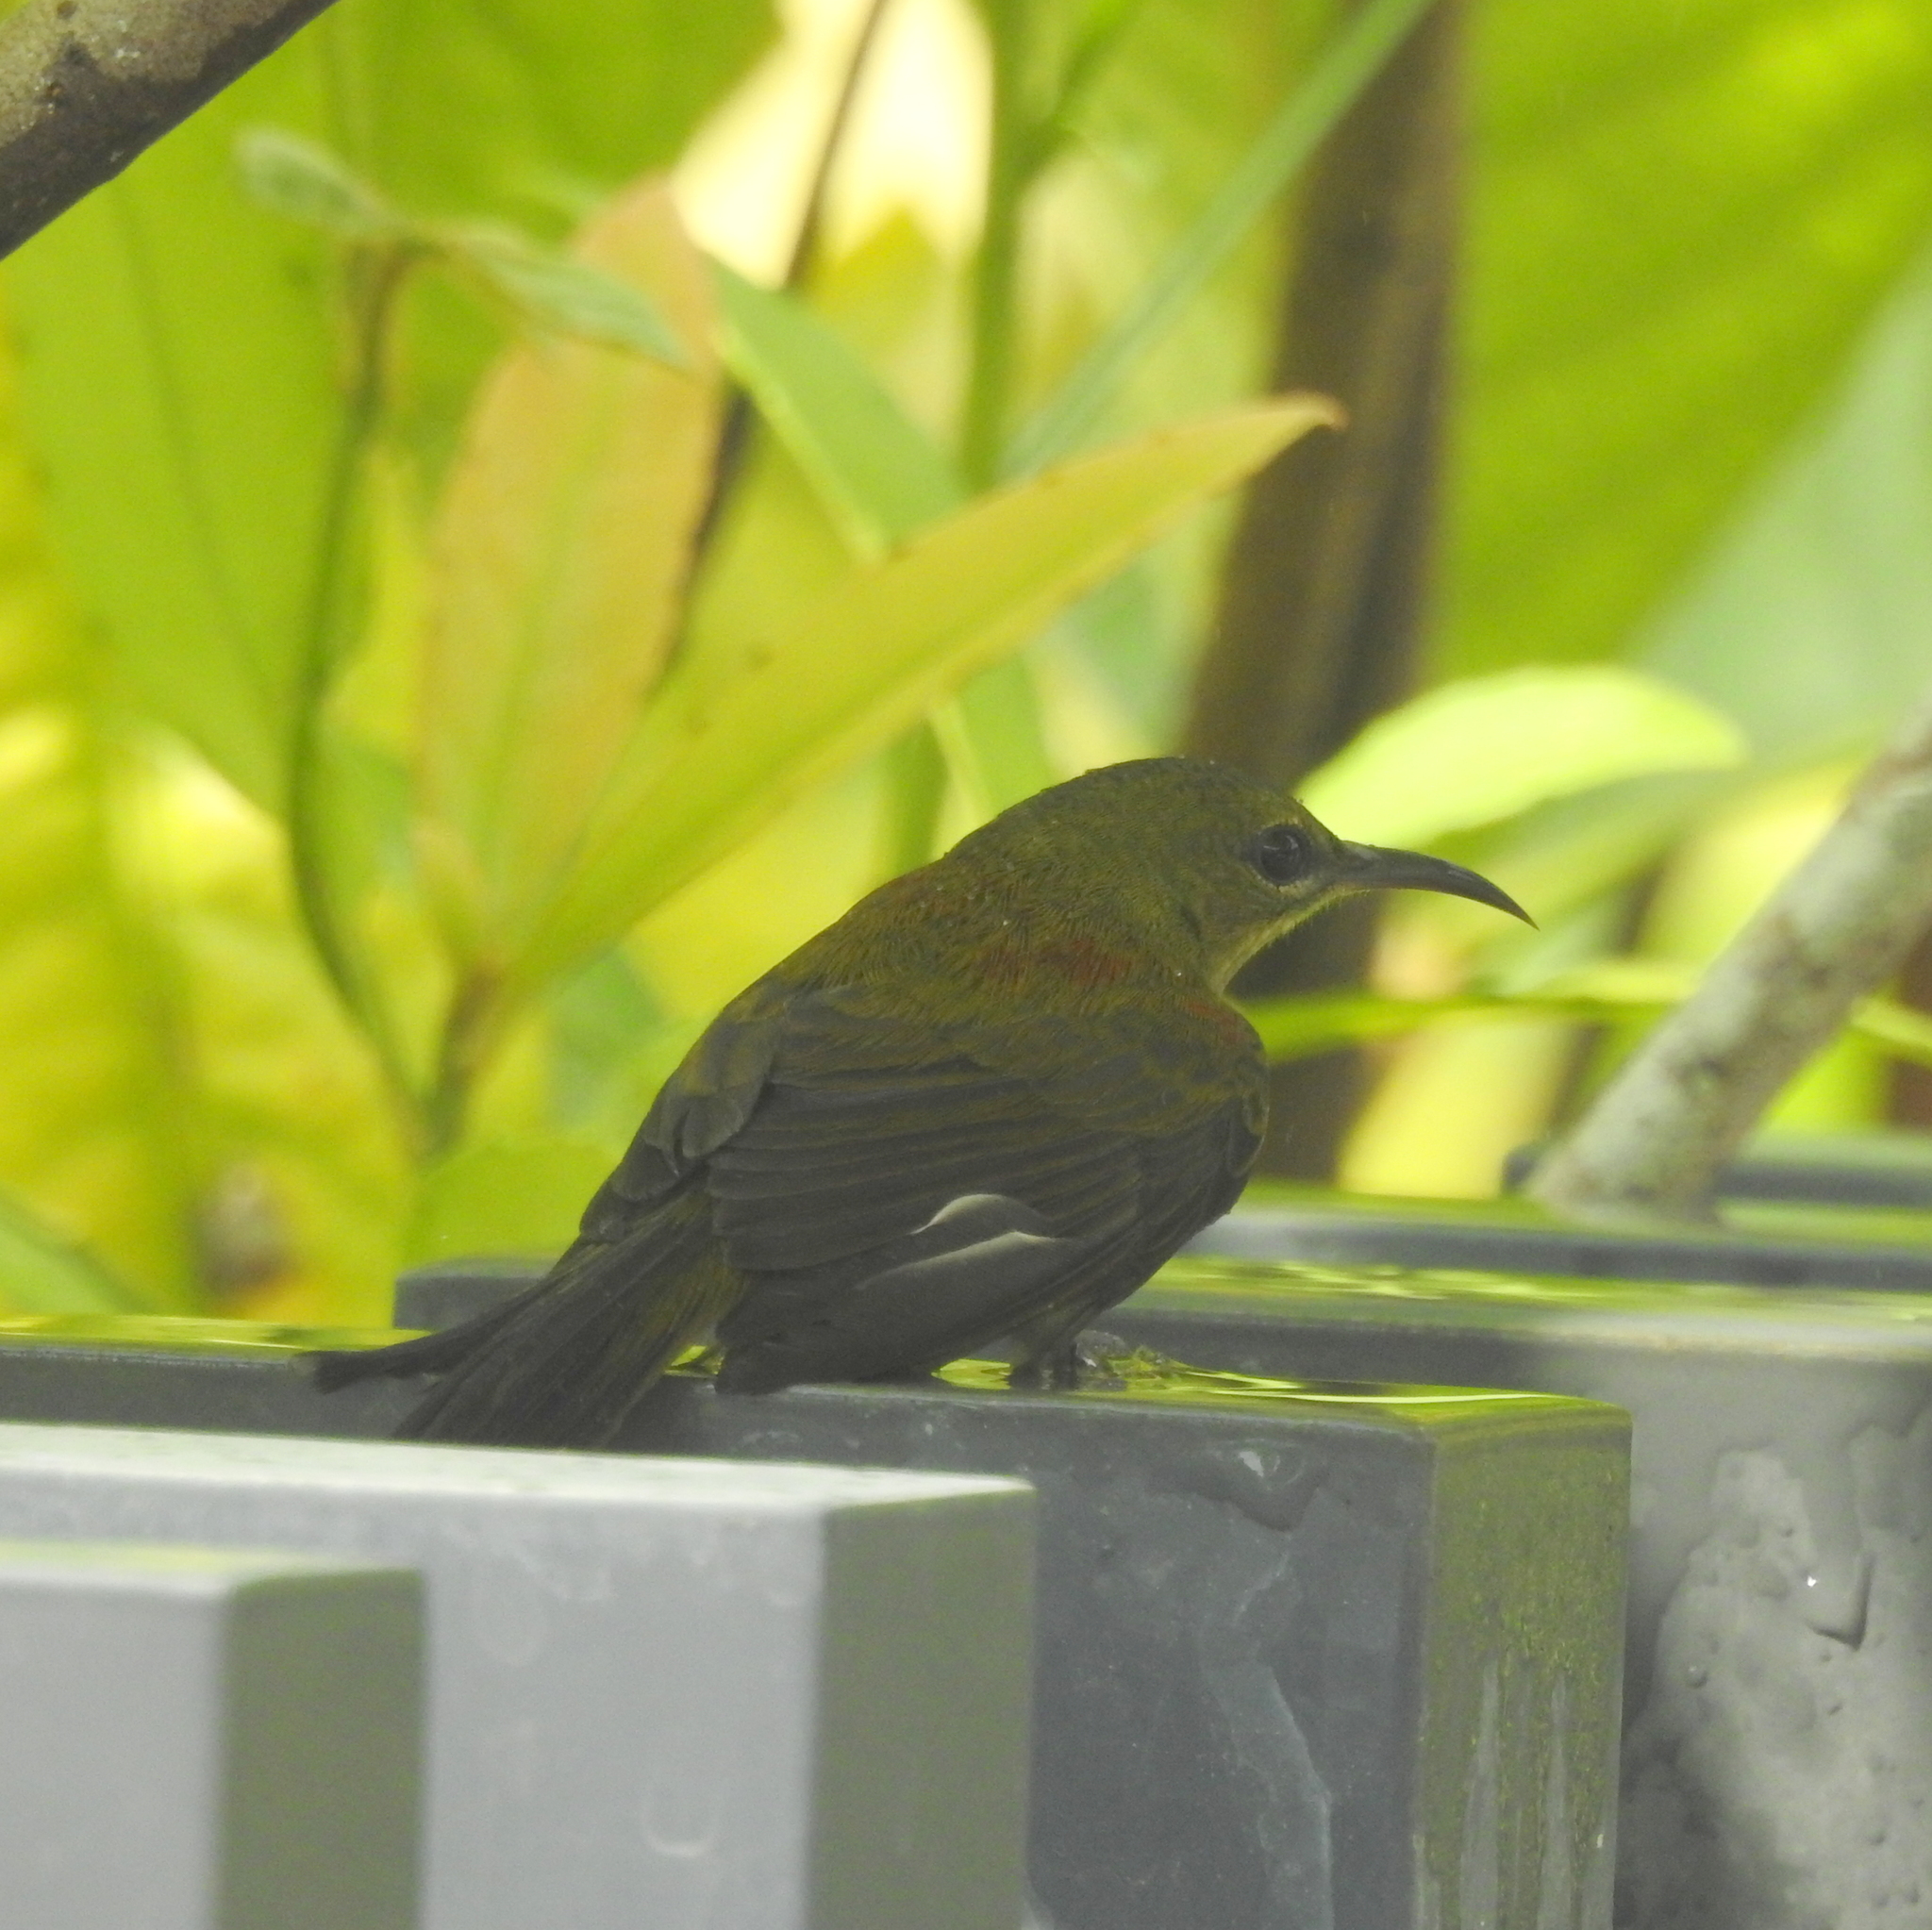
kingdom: Animalia
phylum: Chordata
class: Aves
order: Passeriformes
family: Nectariniidae
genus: Aethopyga
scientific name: Aethopyga siparaja
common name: Crimson sunbird
